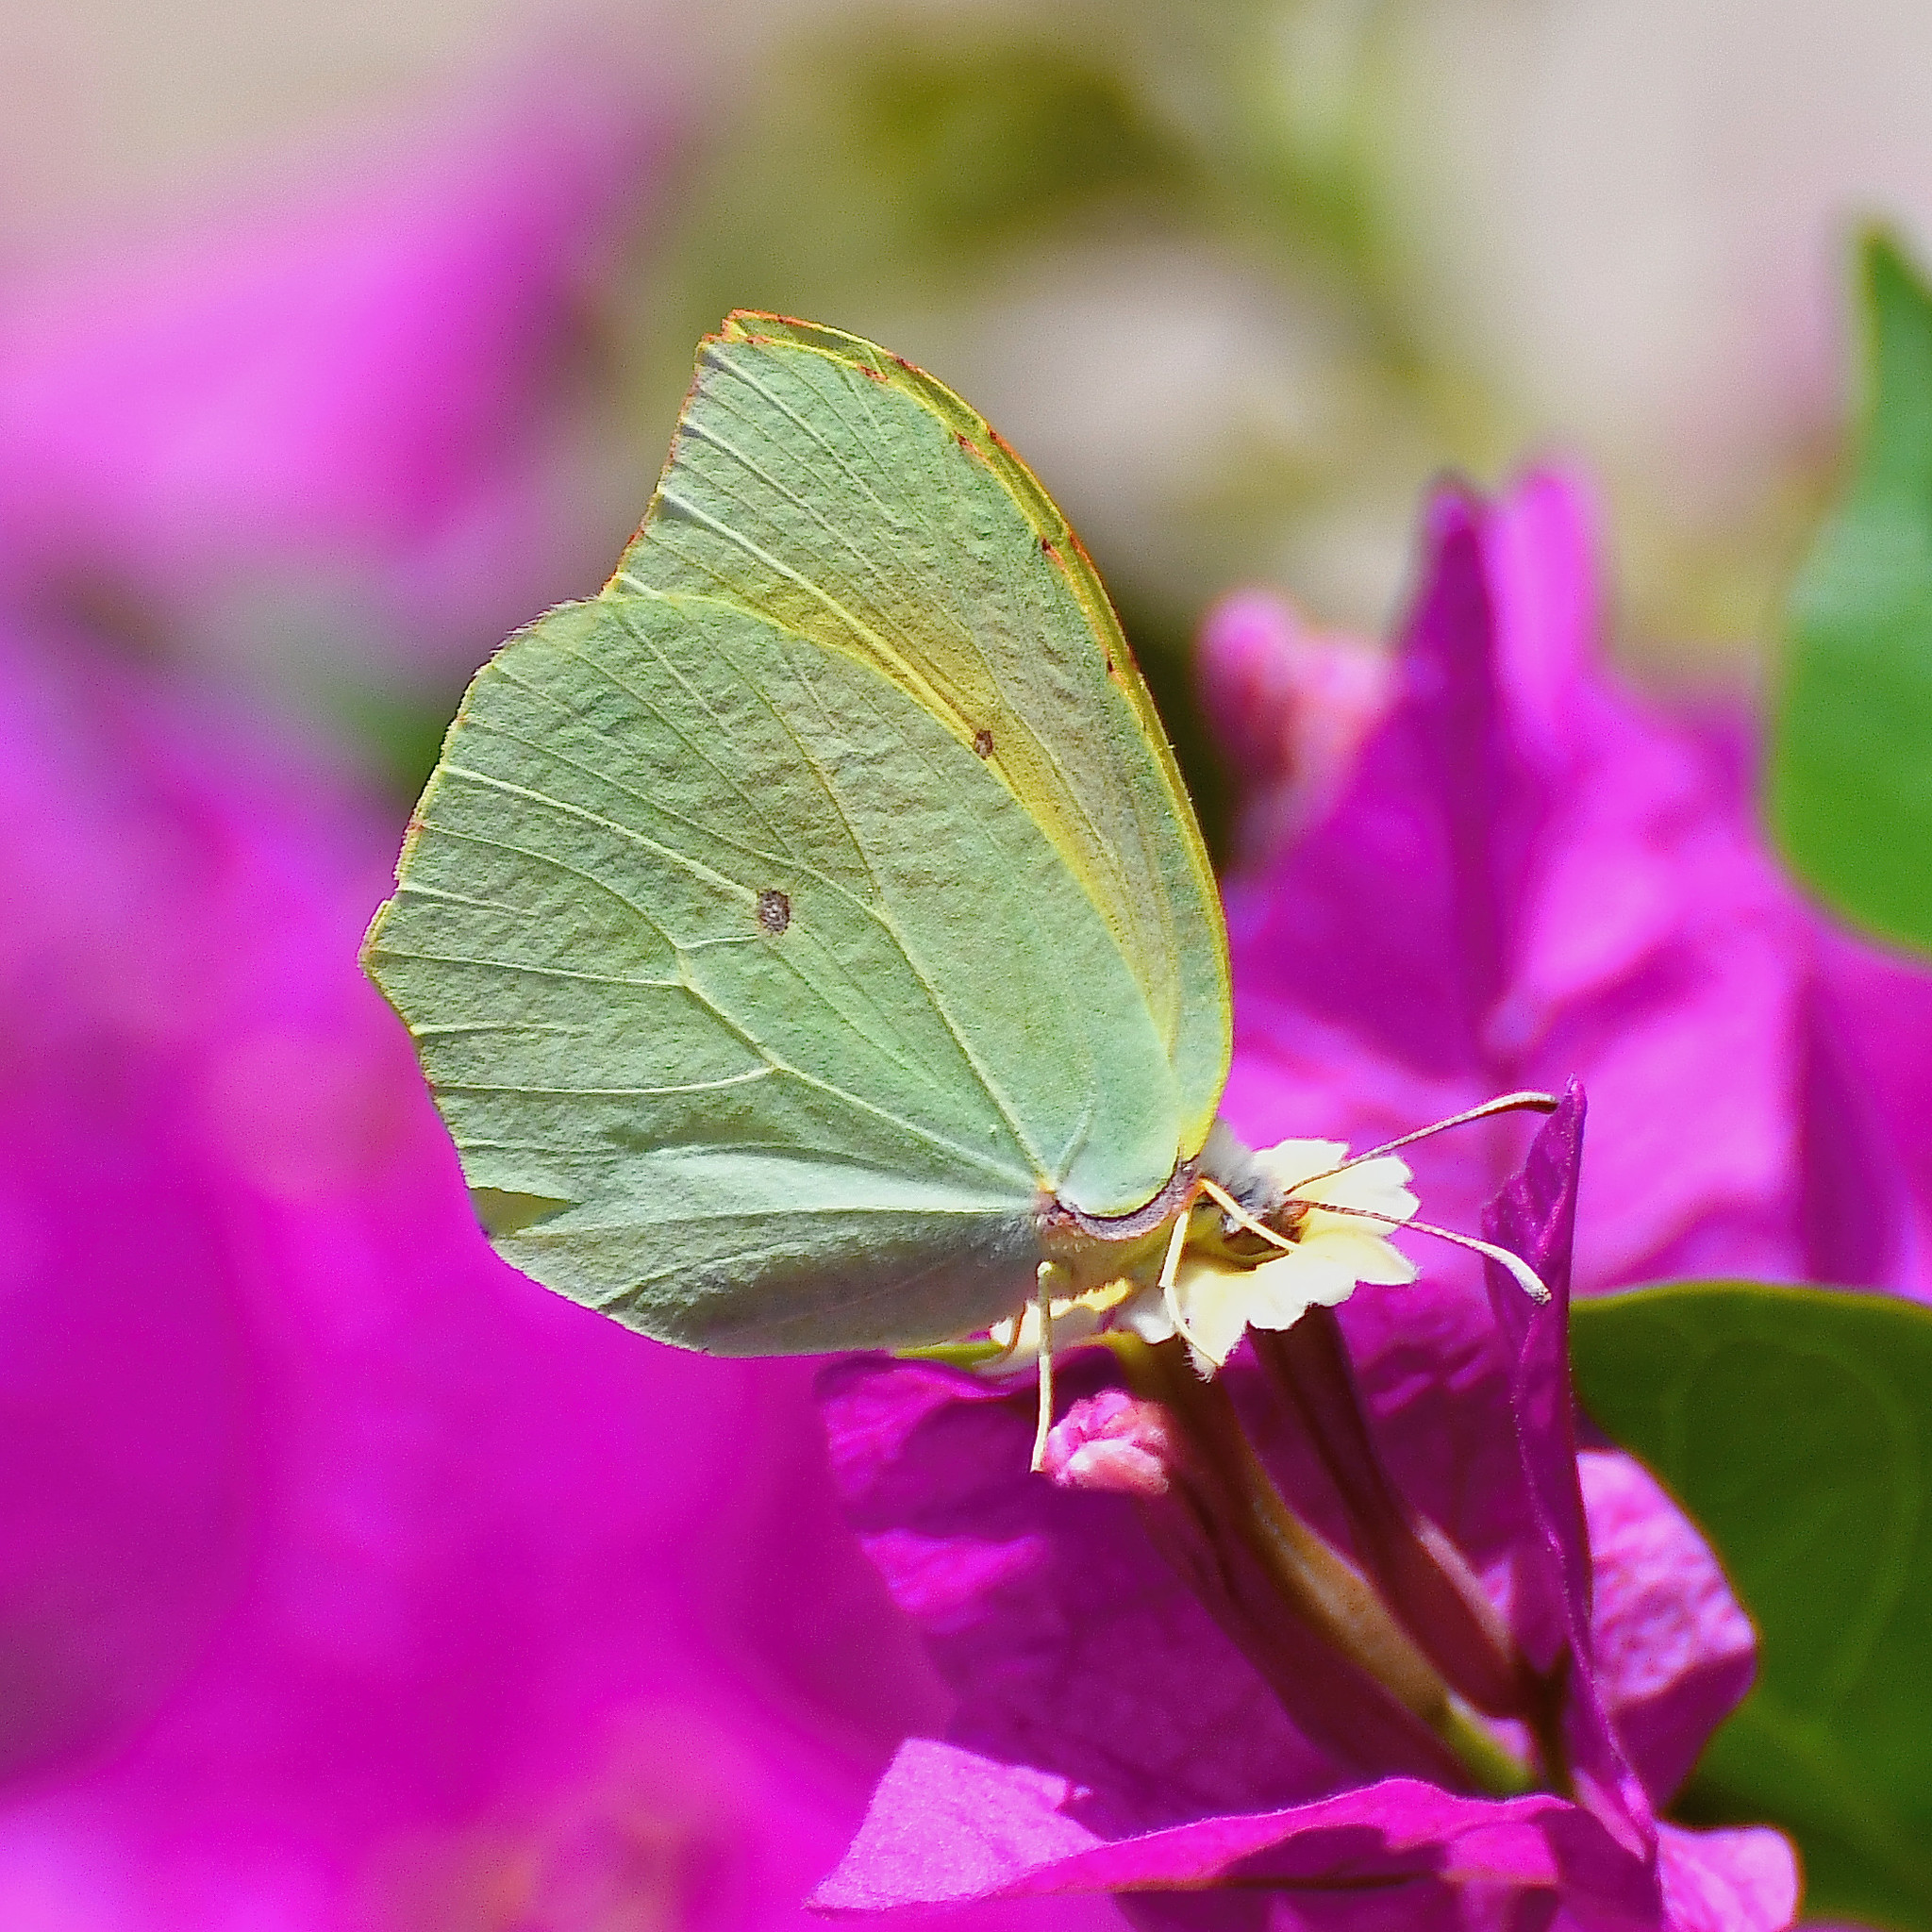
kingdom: Animalia
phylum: Arthropoda
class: Insecta
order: Lepidoptera
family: Pieridae
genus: Gonepteryx
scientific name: Gonepteryx cleopatra
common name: Cleopatra
